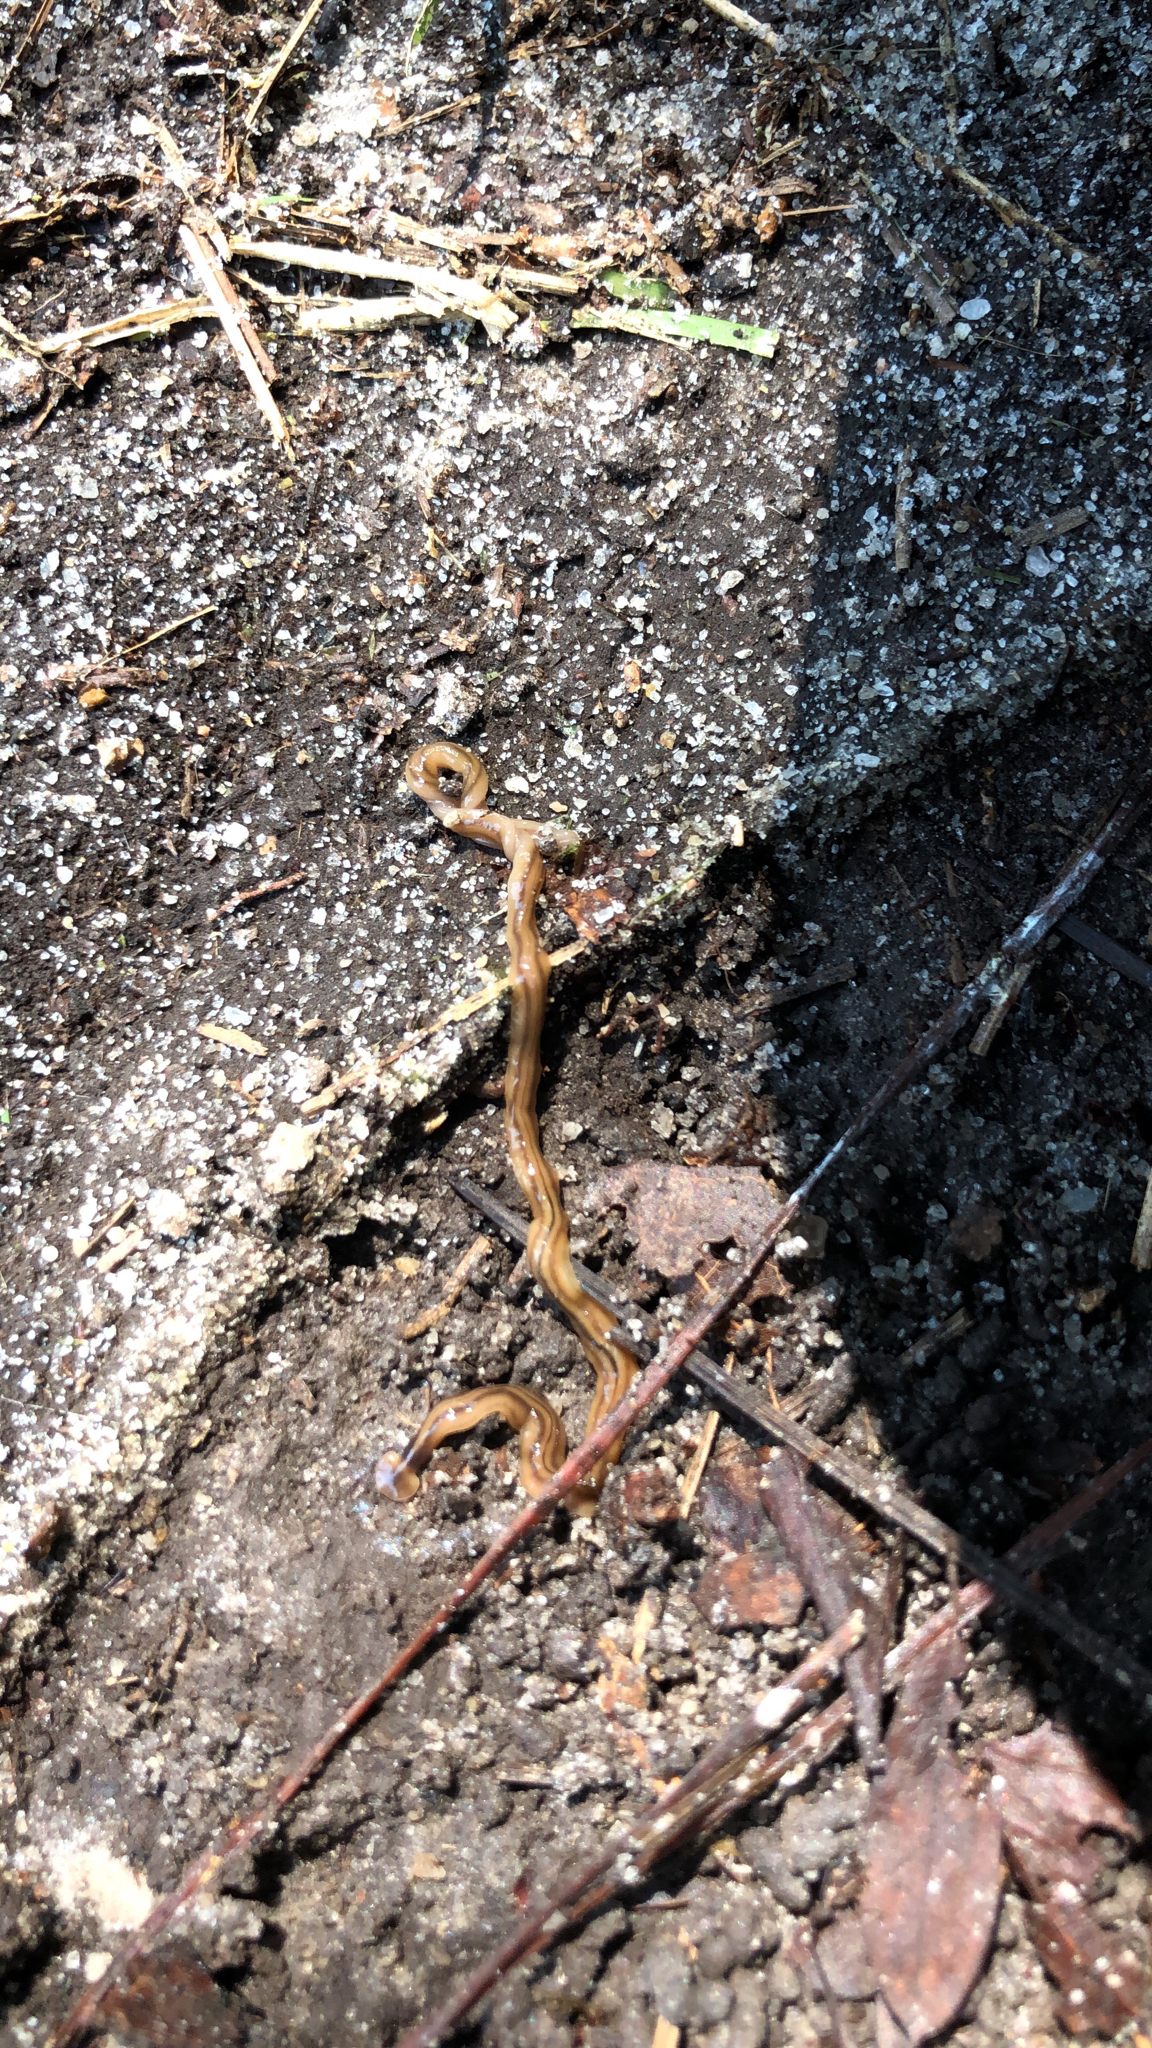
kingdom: Animalia
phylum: Platyhelminthes
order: Tricladida
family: Geoplanidae
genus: Bipalium
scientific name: Bipalium kewense
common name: Hammerhead flatworm
